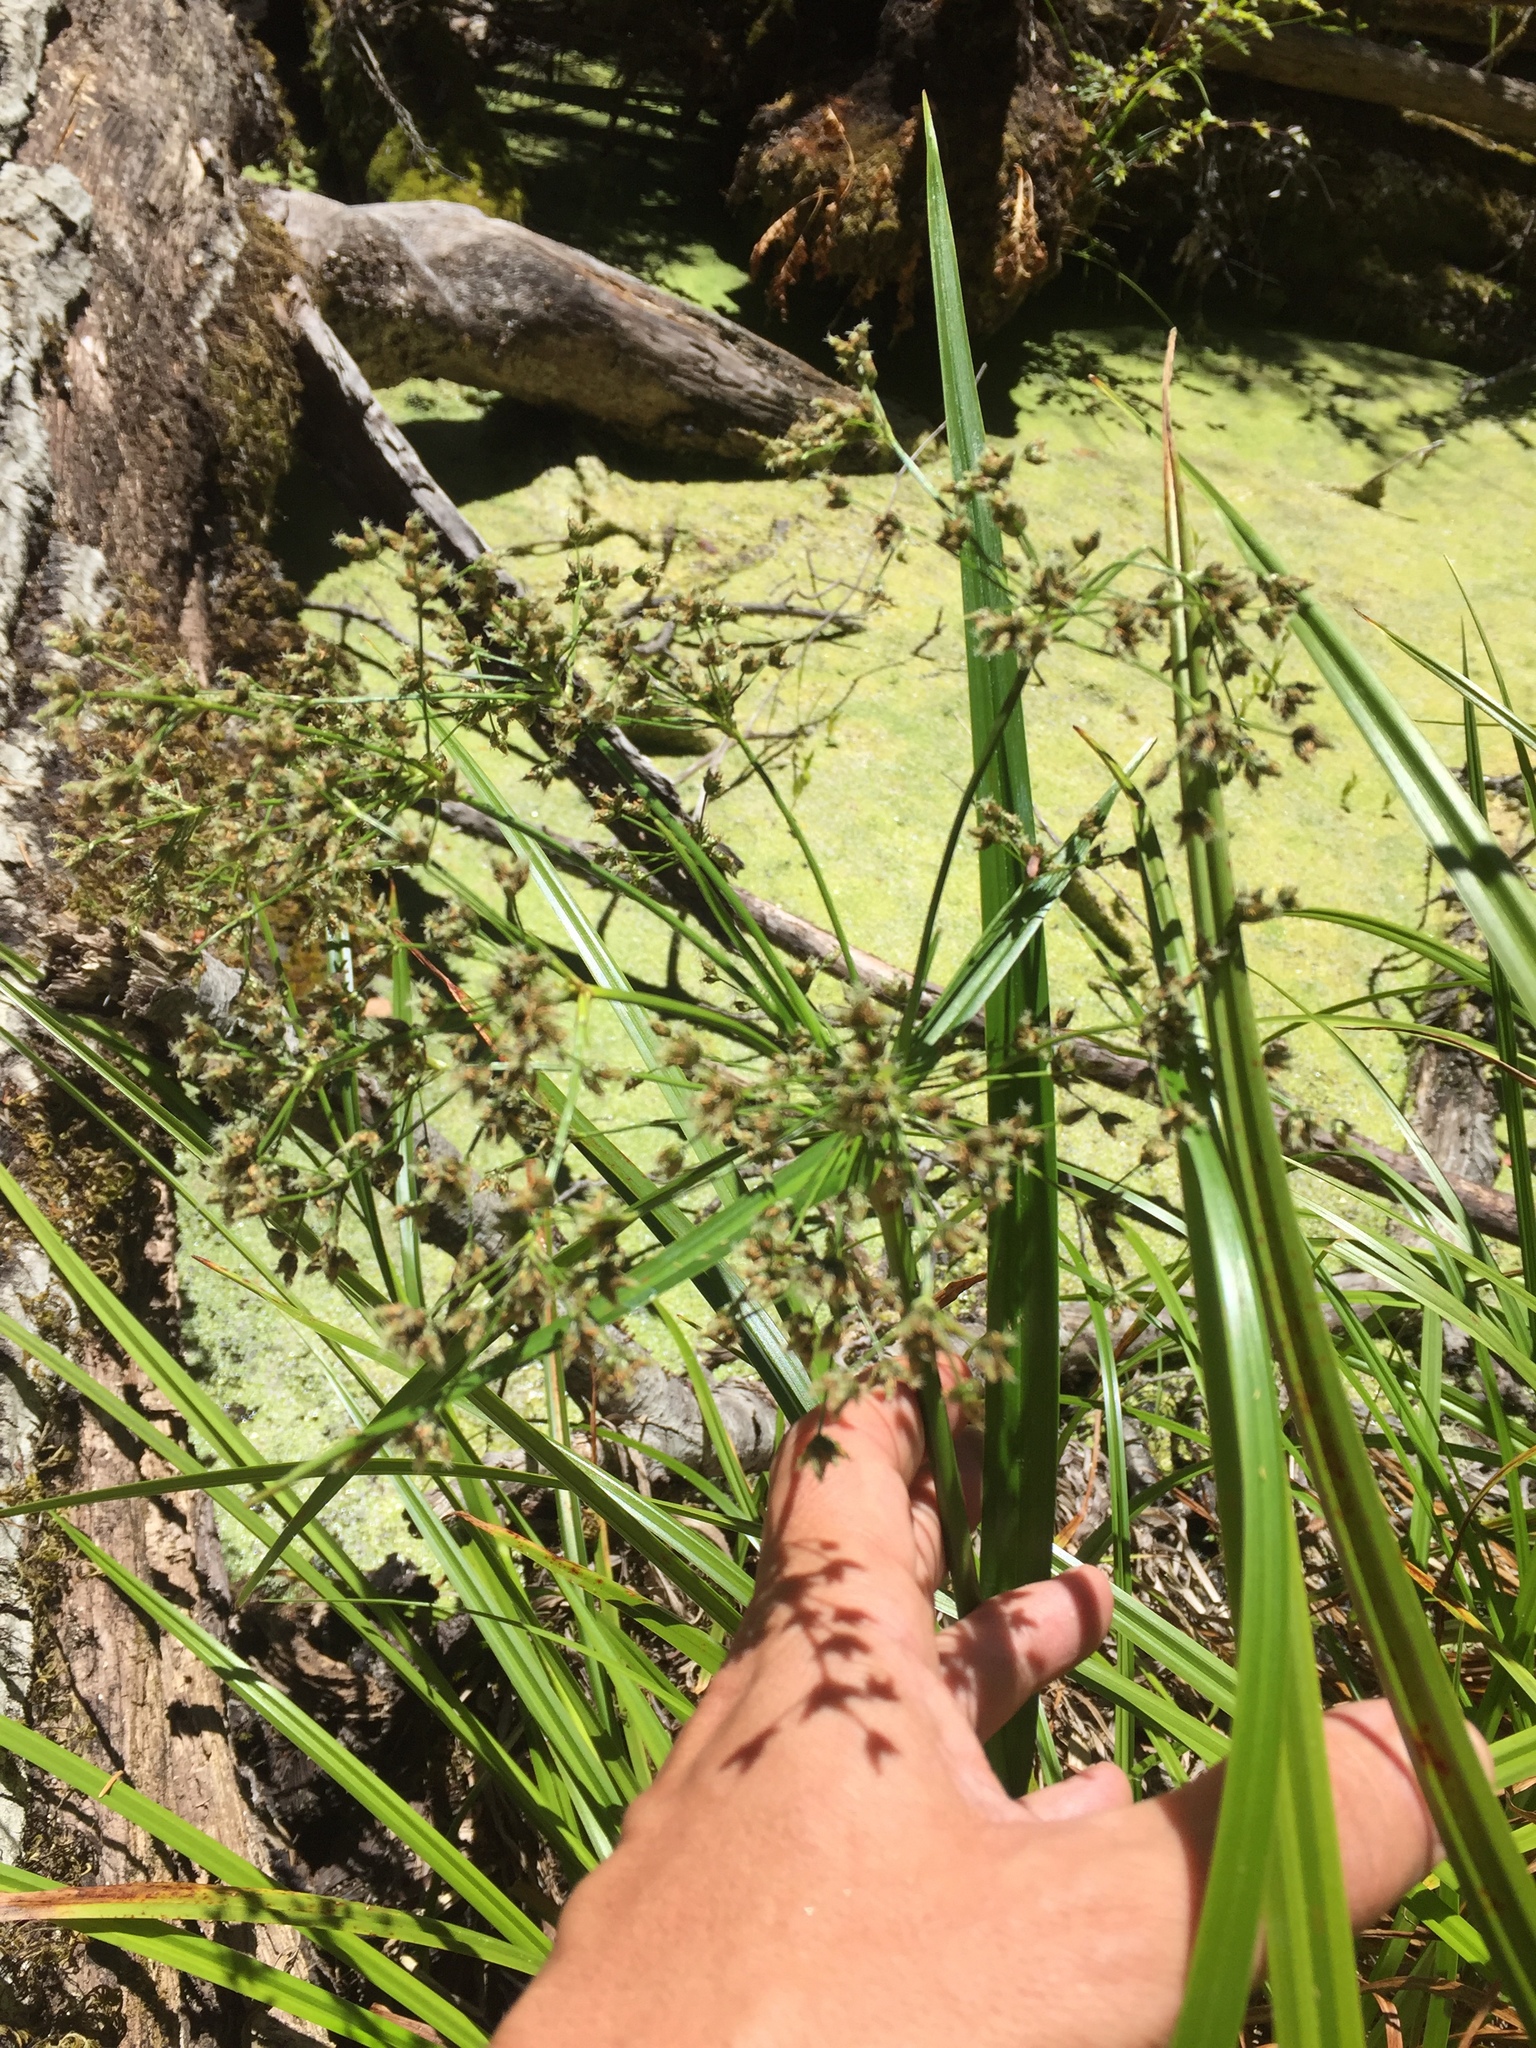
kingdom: Plantae
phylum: Tracheophyta
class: Liliopsida
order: Poales
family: Cyperaceae
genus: Scirpus
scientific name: Scirpus microcarpus
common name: Panicled bulrush
